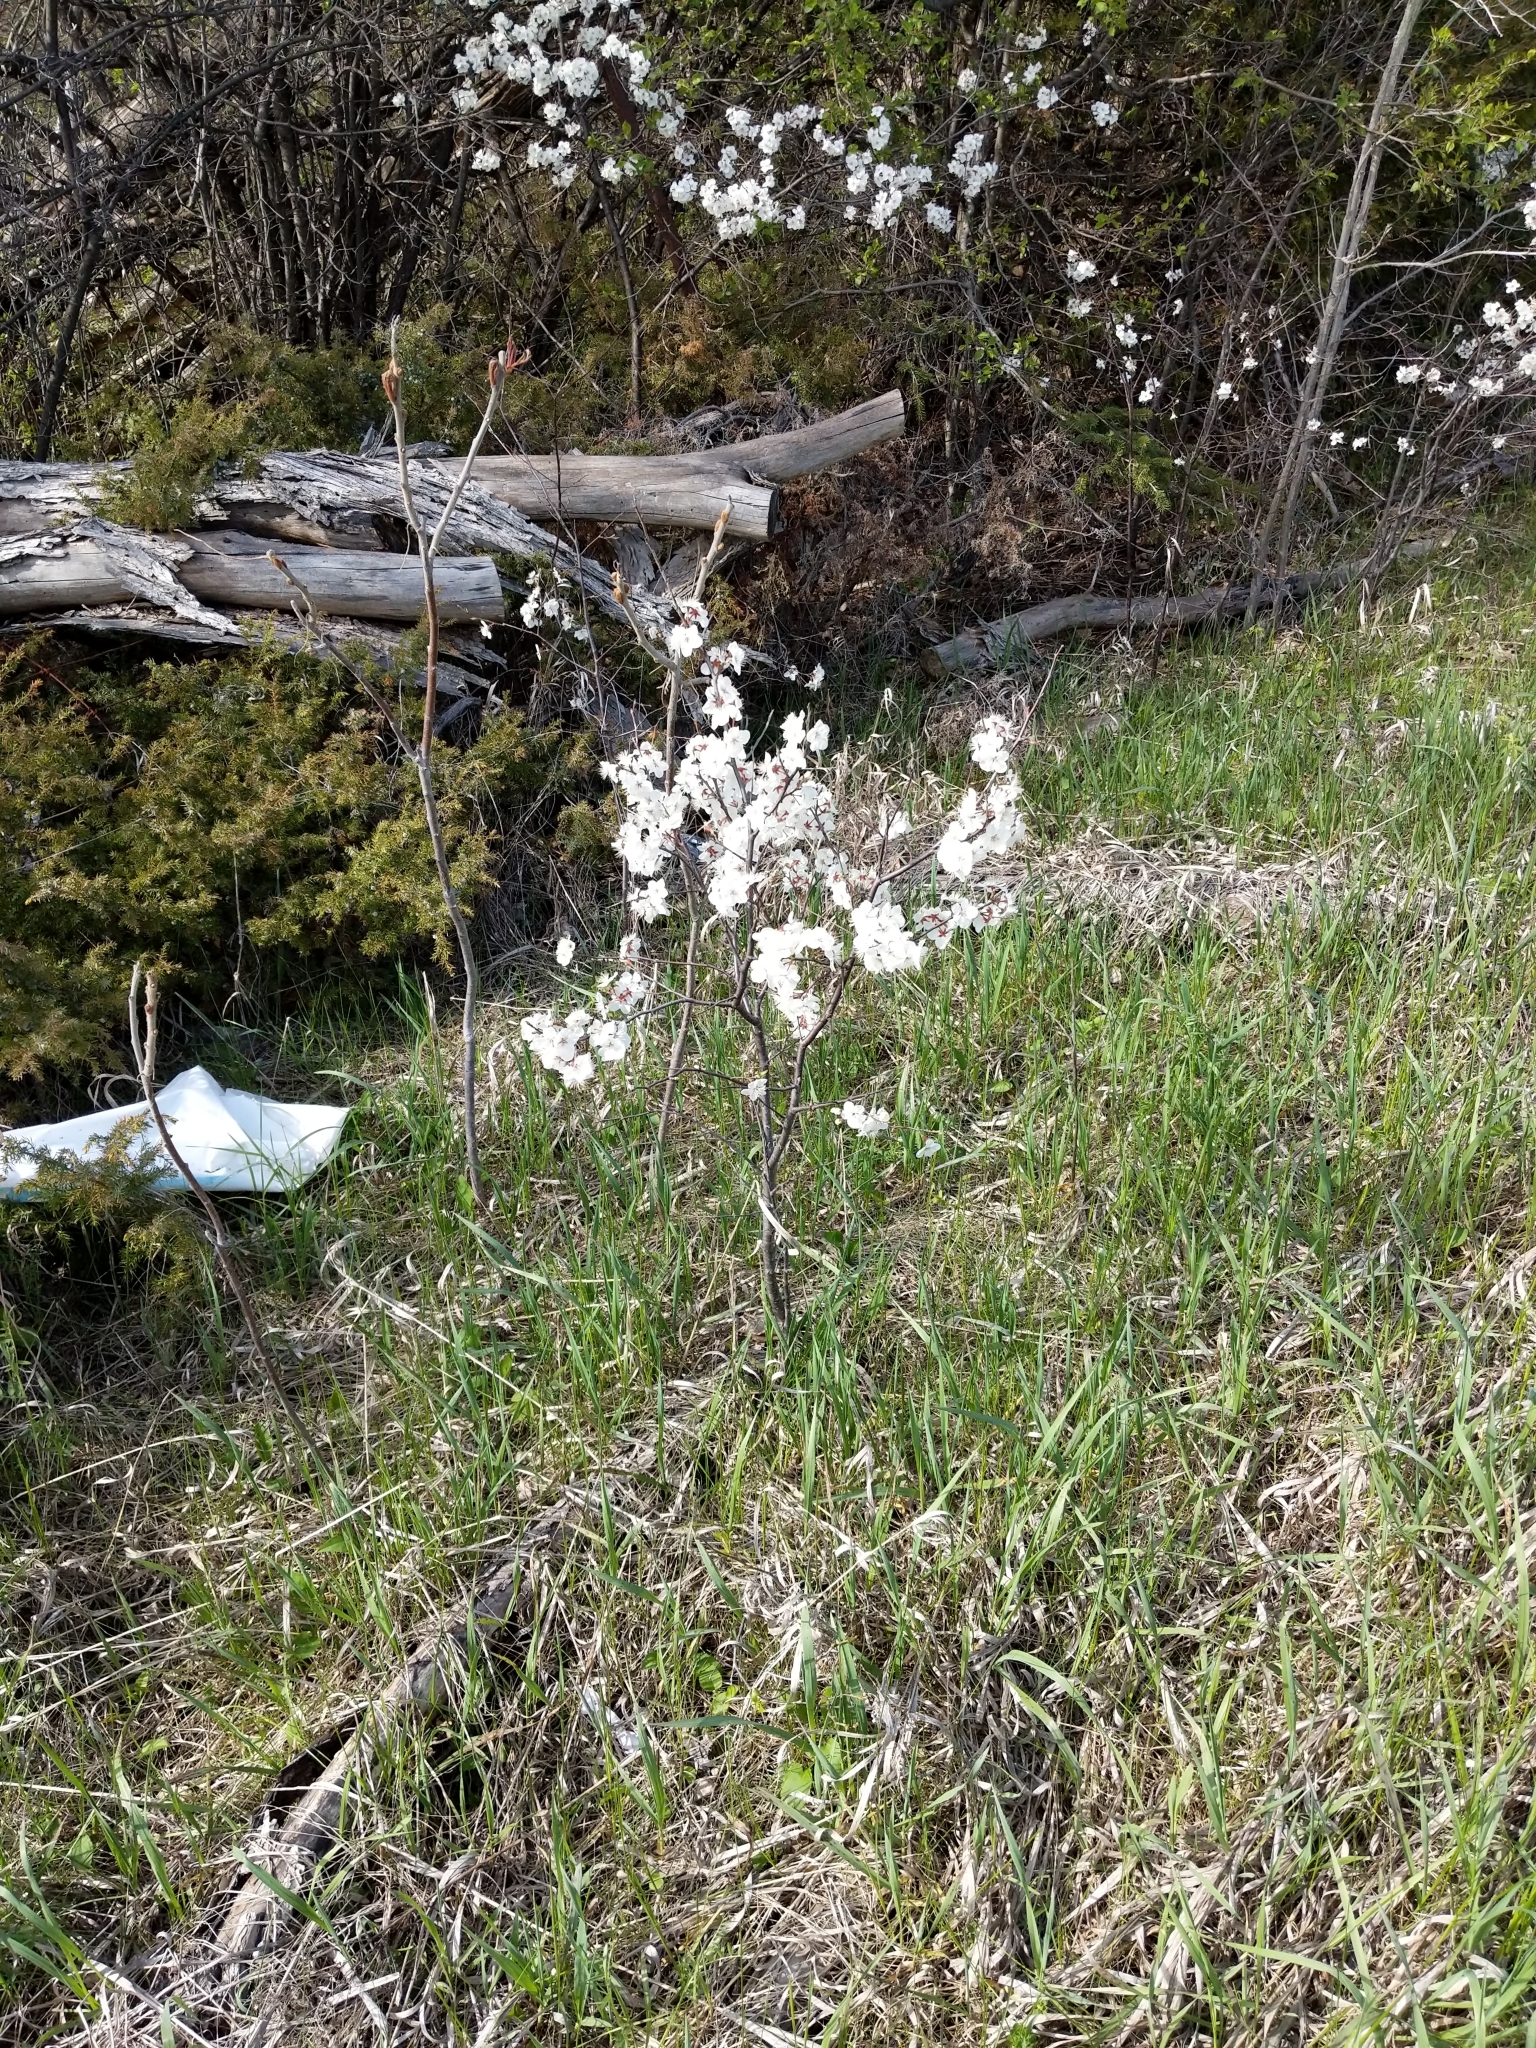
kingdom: Plantae
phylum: Tracheophyta
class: Magnoliopsida
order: Rosales
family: Rosaceae
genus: Prunus
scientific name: Prunus domestica
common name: Wild plum
